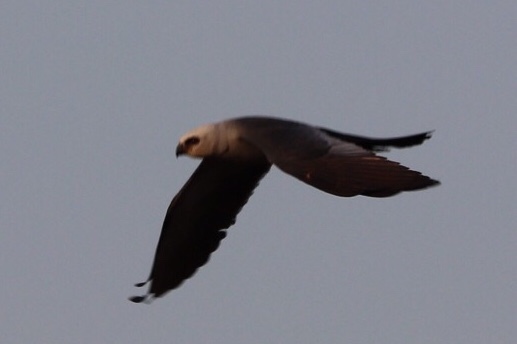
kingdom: Animalia
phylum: Chordata
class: Aves
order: Accipitriformes
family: Accipitridae
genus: Ictinia
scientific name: Ictinia mississippiensis
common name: Mississippi kite
